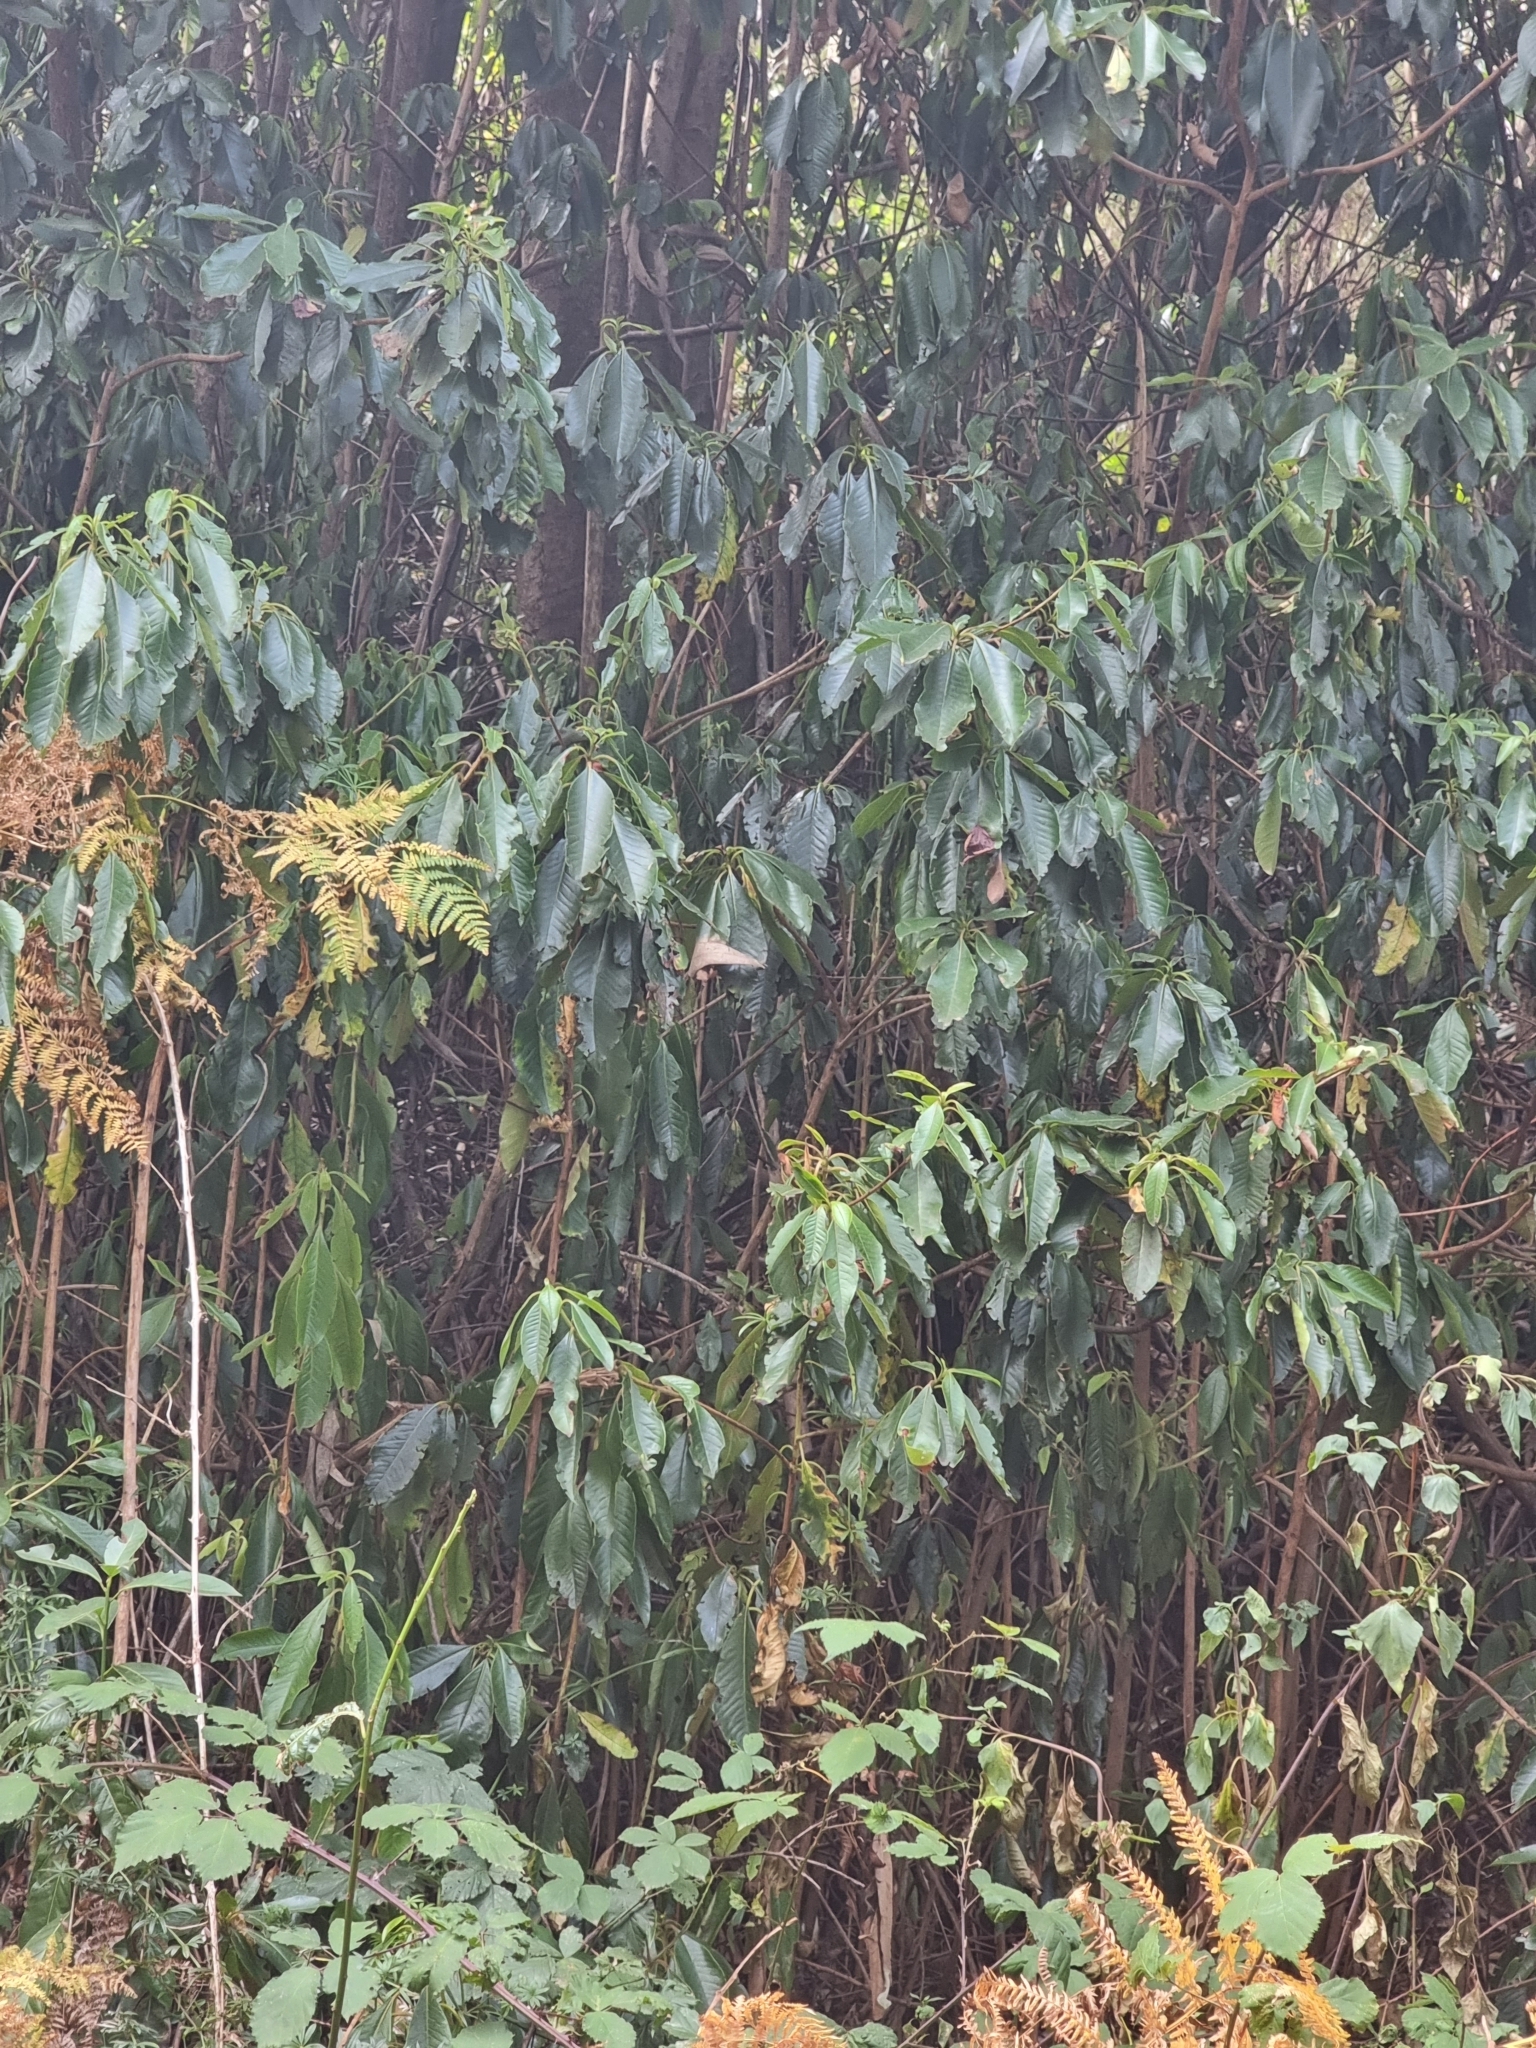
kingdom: Plantae
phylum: Tracheophyta
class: Magnoliopsida
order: Ericales
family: Clethraceae
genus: Clethra
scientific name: Clethra arborea
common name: Lily-of-the-valley-tree
